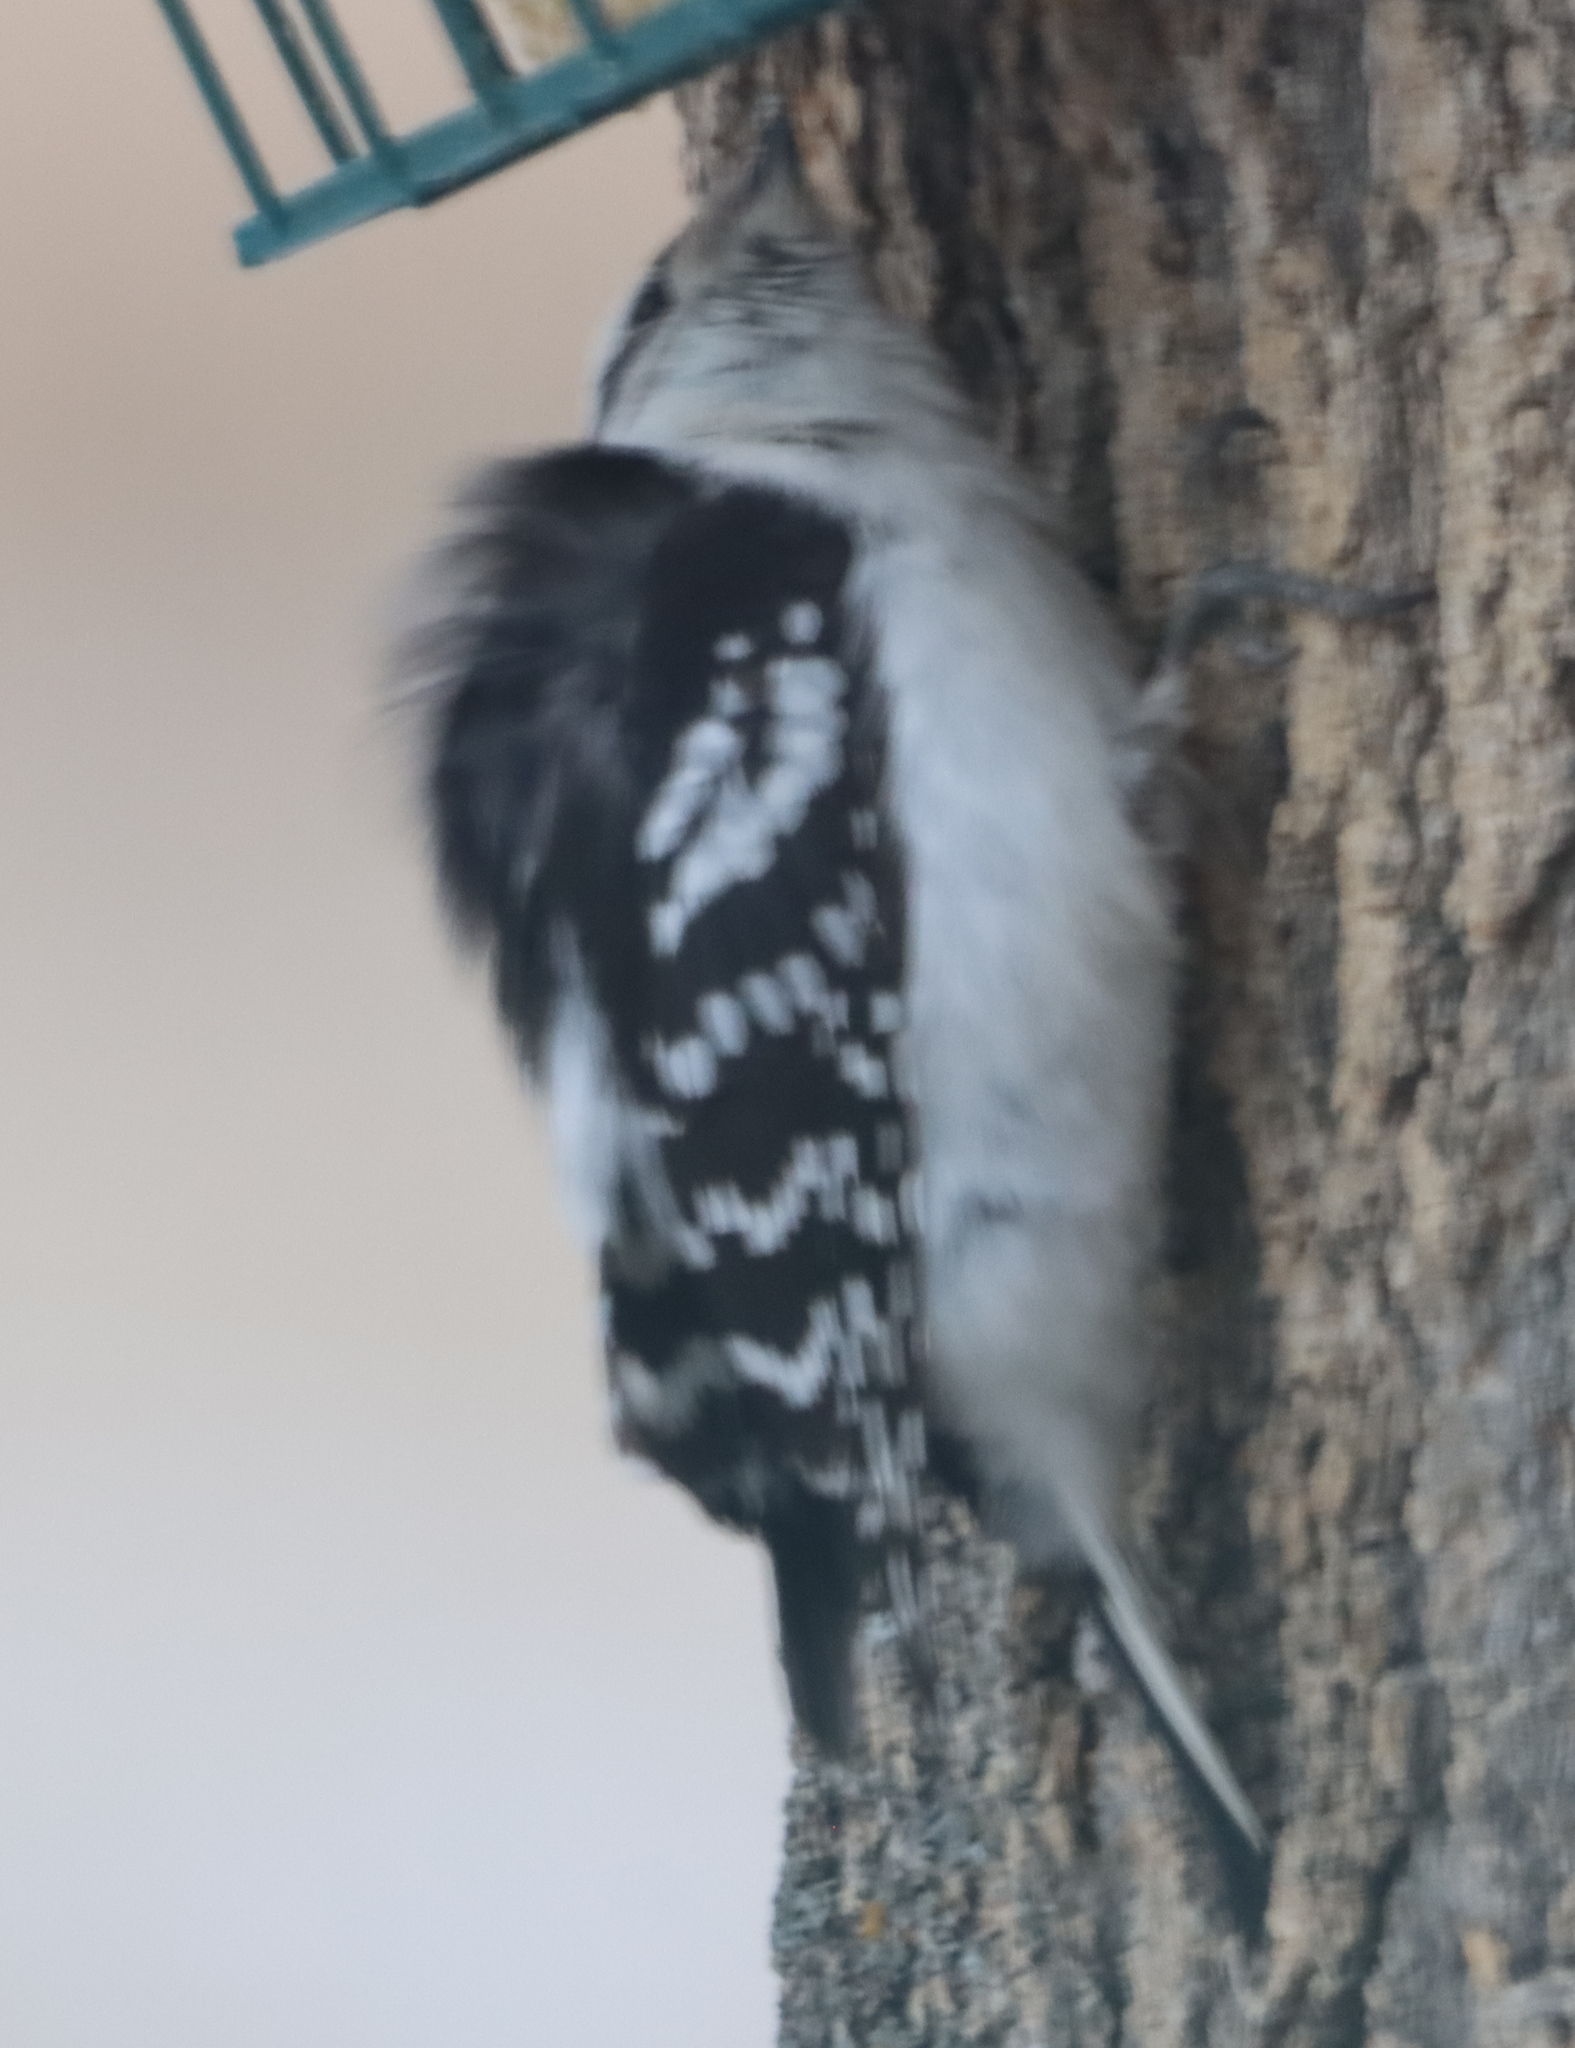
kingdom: Animalia
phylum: Chordata
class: Aves
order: Piciformes
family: Picidae
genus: Dryobates
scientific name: Dryobates pubescens
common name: Downy woodpecker
